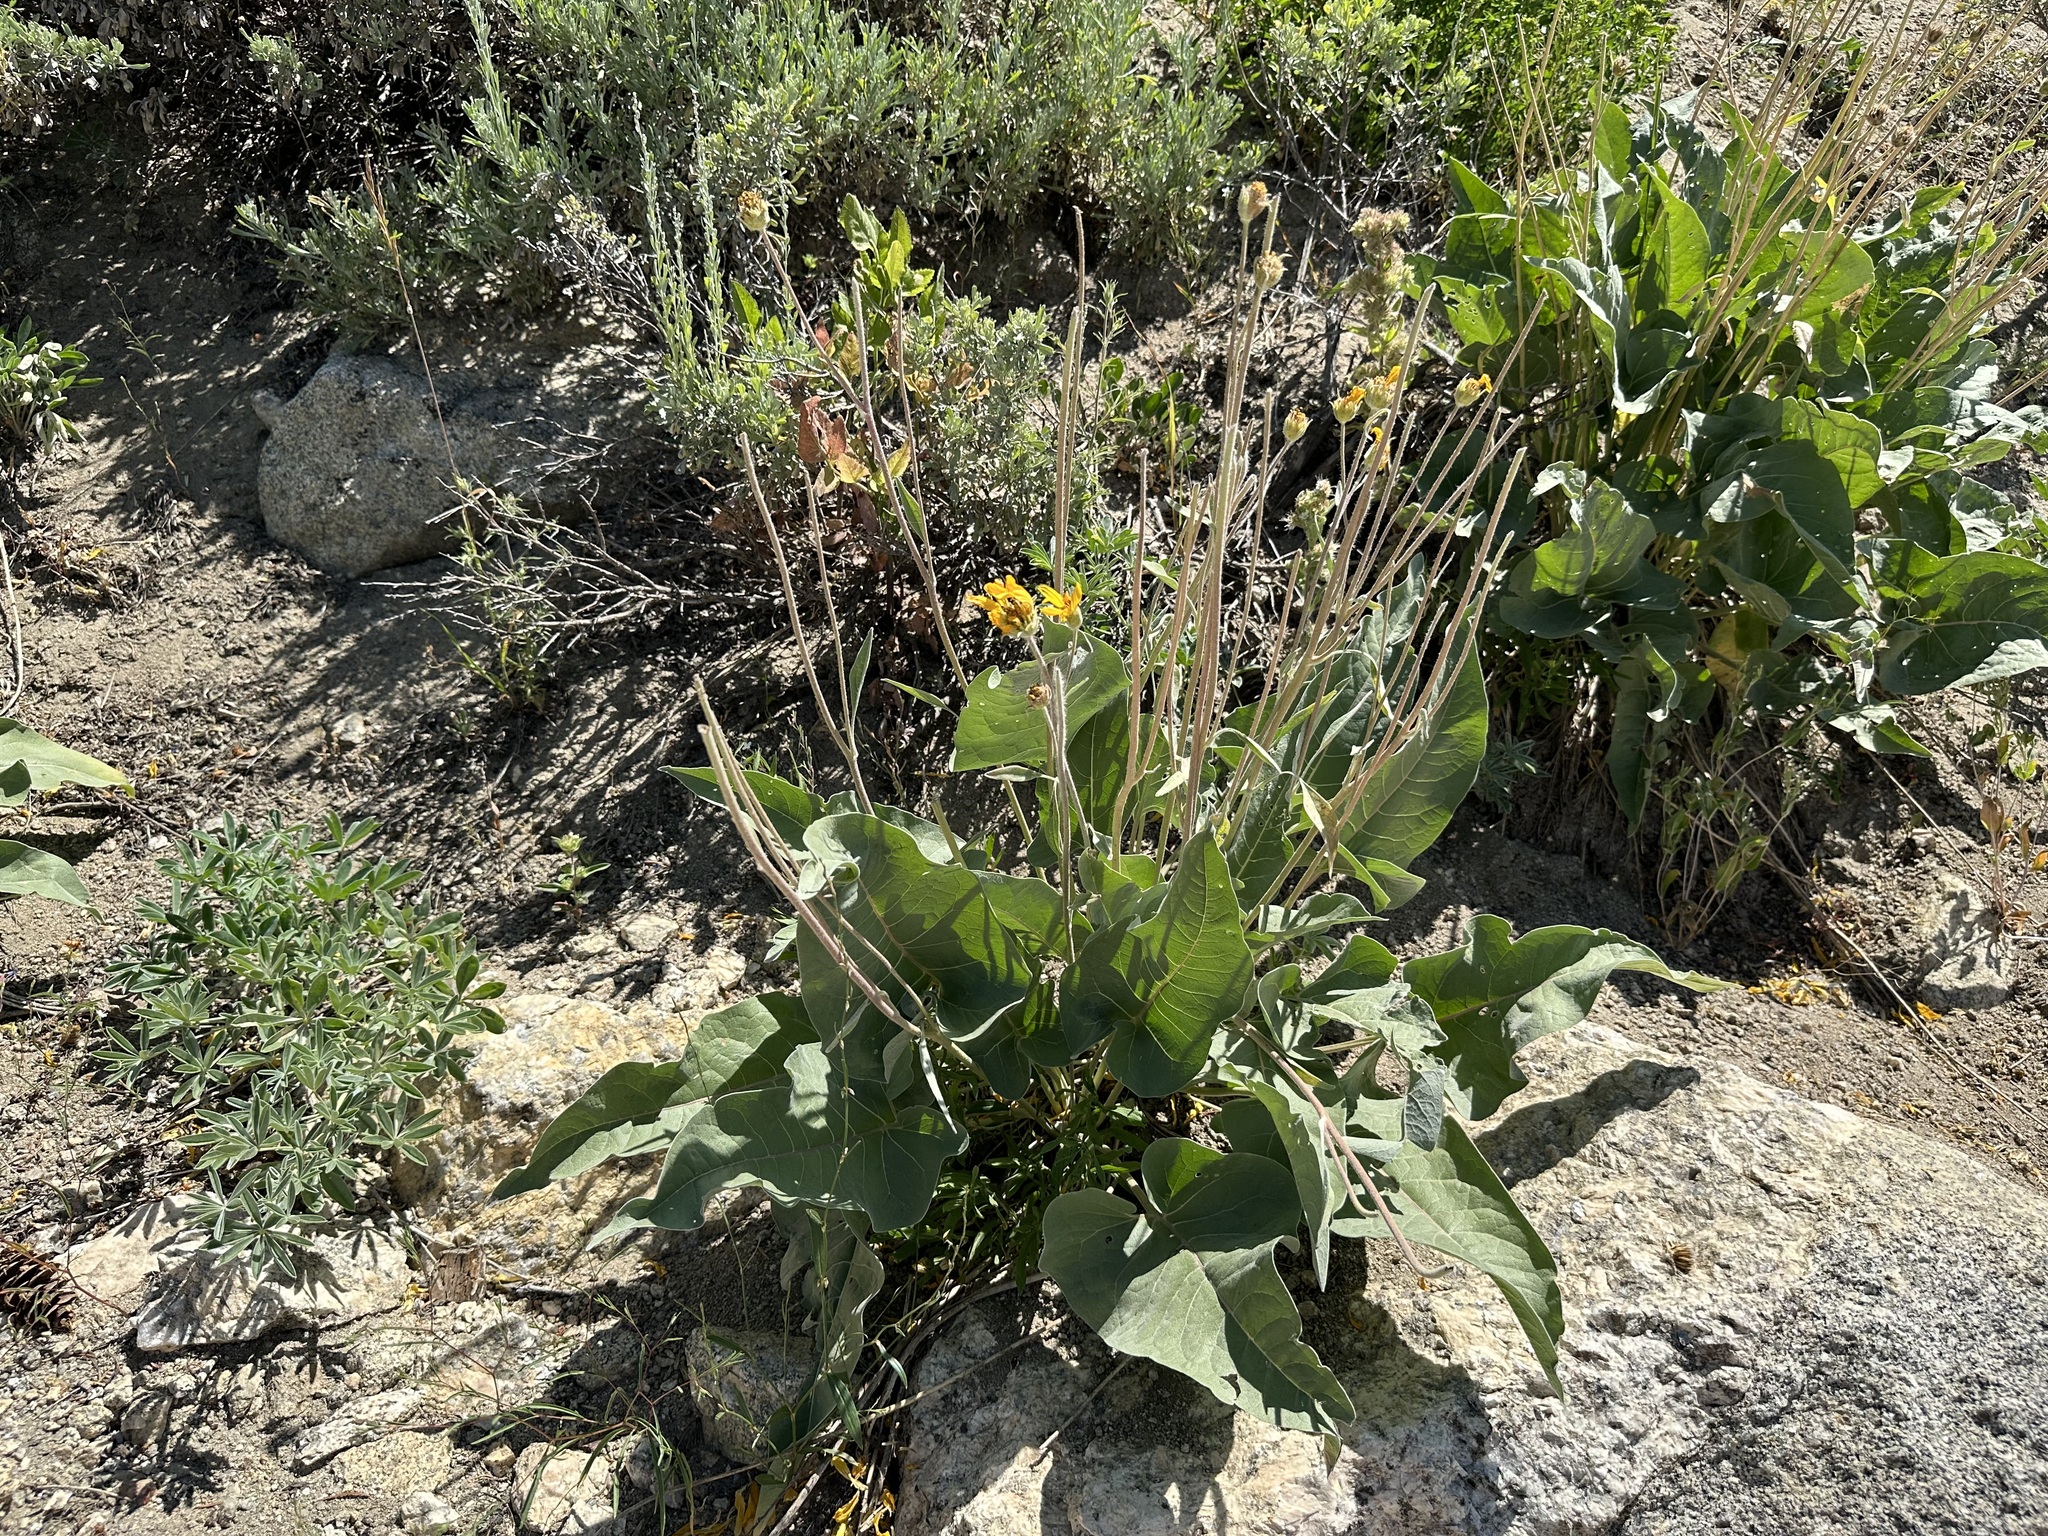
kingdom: Plantae
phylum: Tracheophyta
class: Magnoliopsida
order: Asterales
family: Asteraceae
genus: Wyethia
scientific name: Wyethia sagittata
